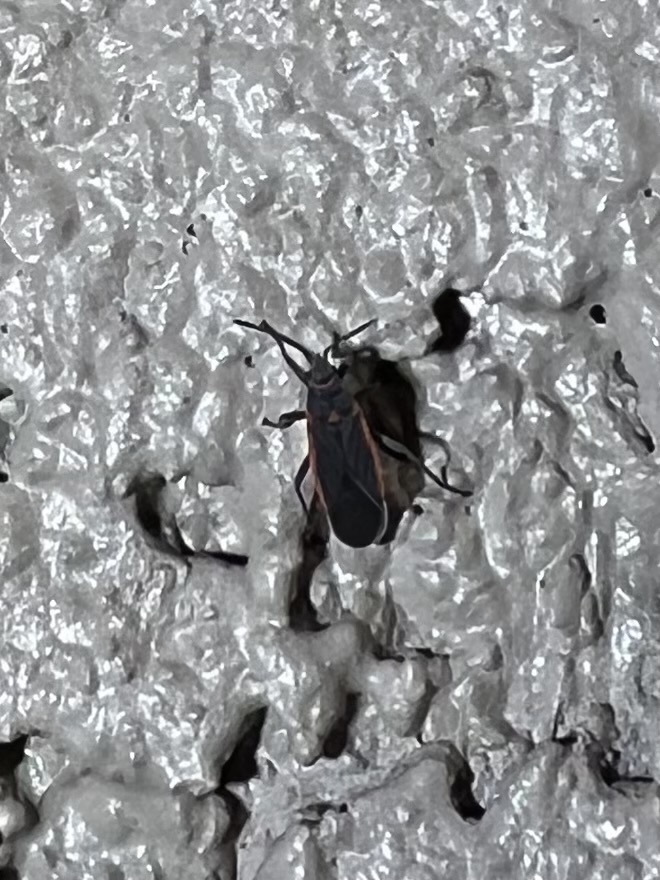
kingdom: Animalia
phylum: Arthropoda
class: Insecta
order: Hemiptera
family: Lygaeidae
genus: Melacoryphus
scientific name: Melacoryphus lateralis
